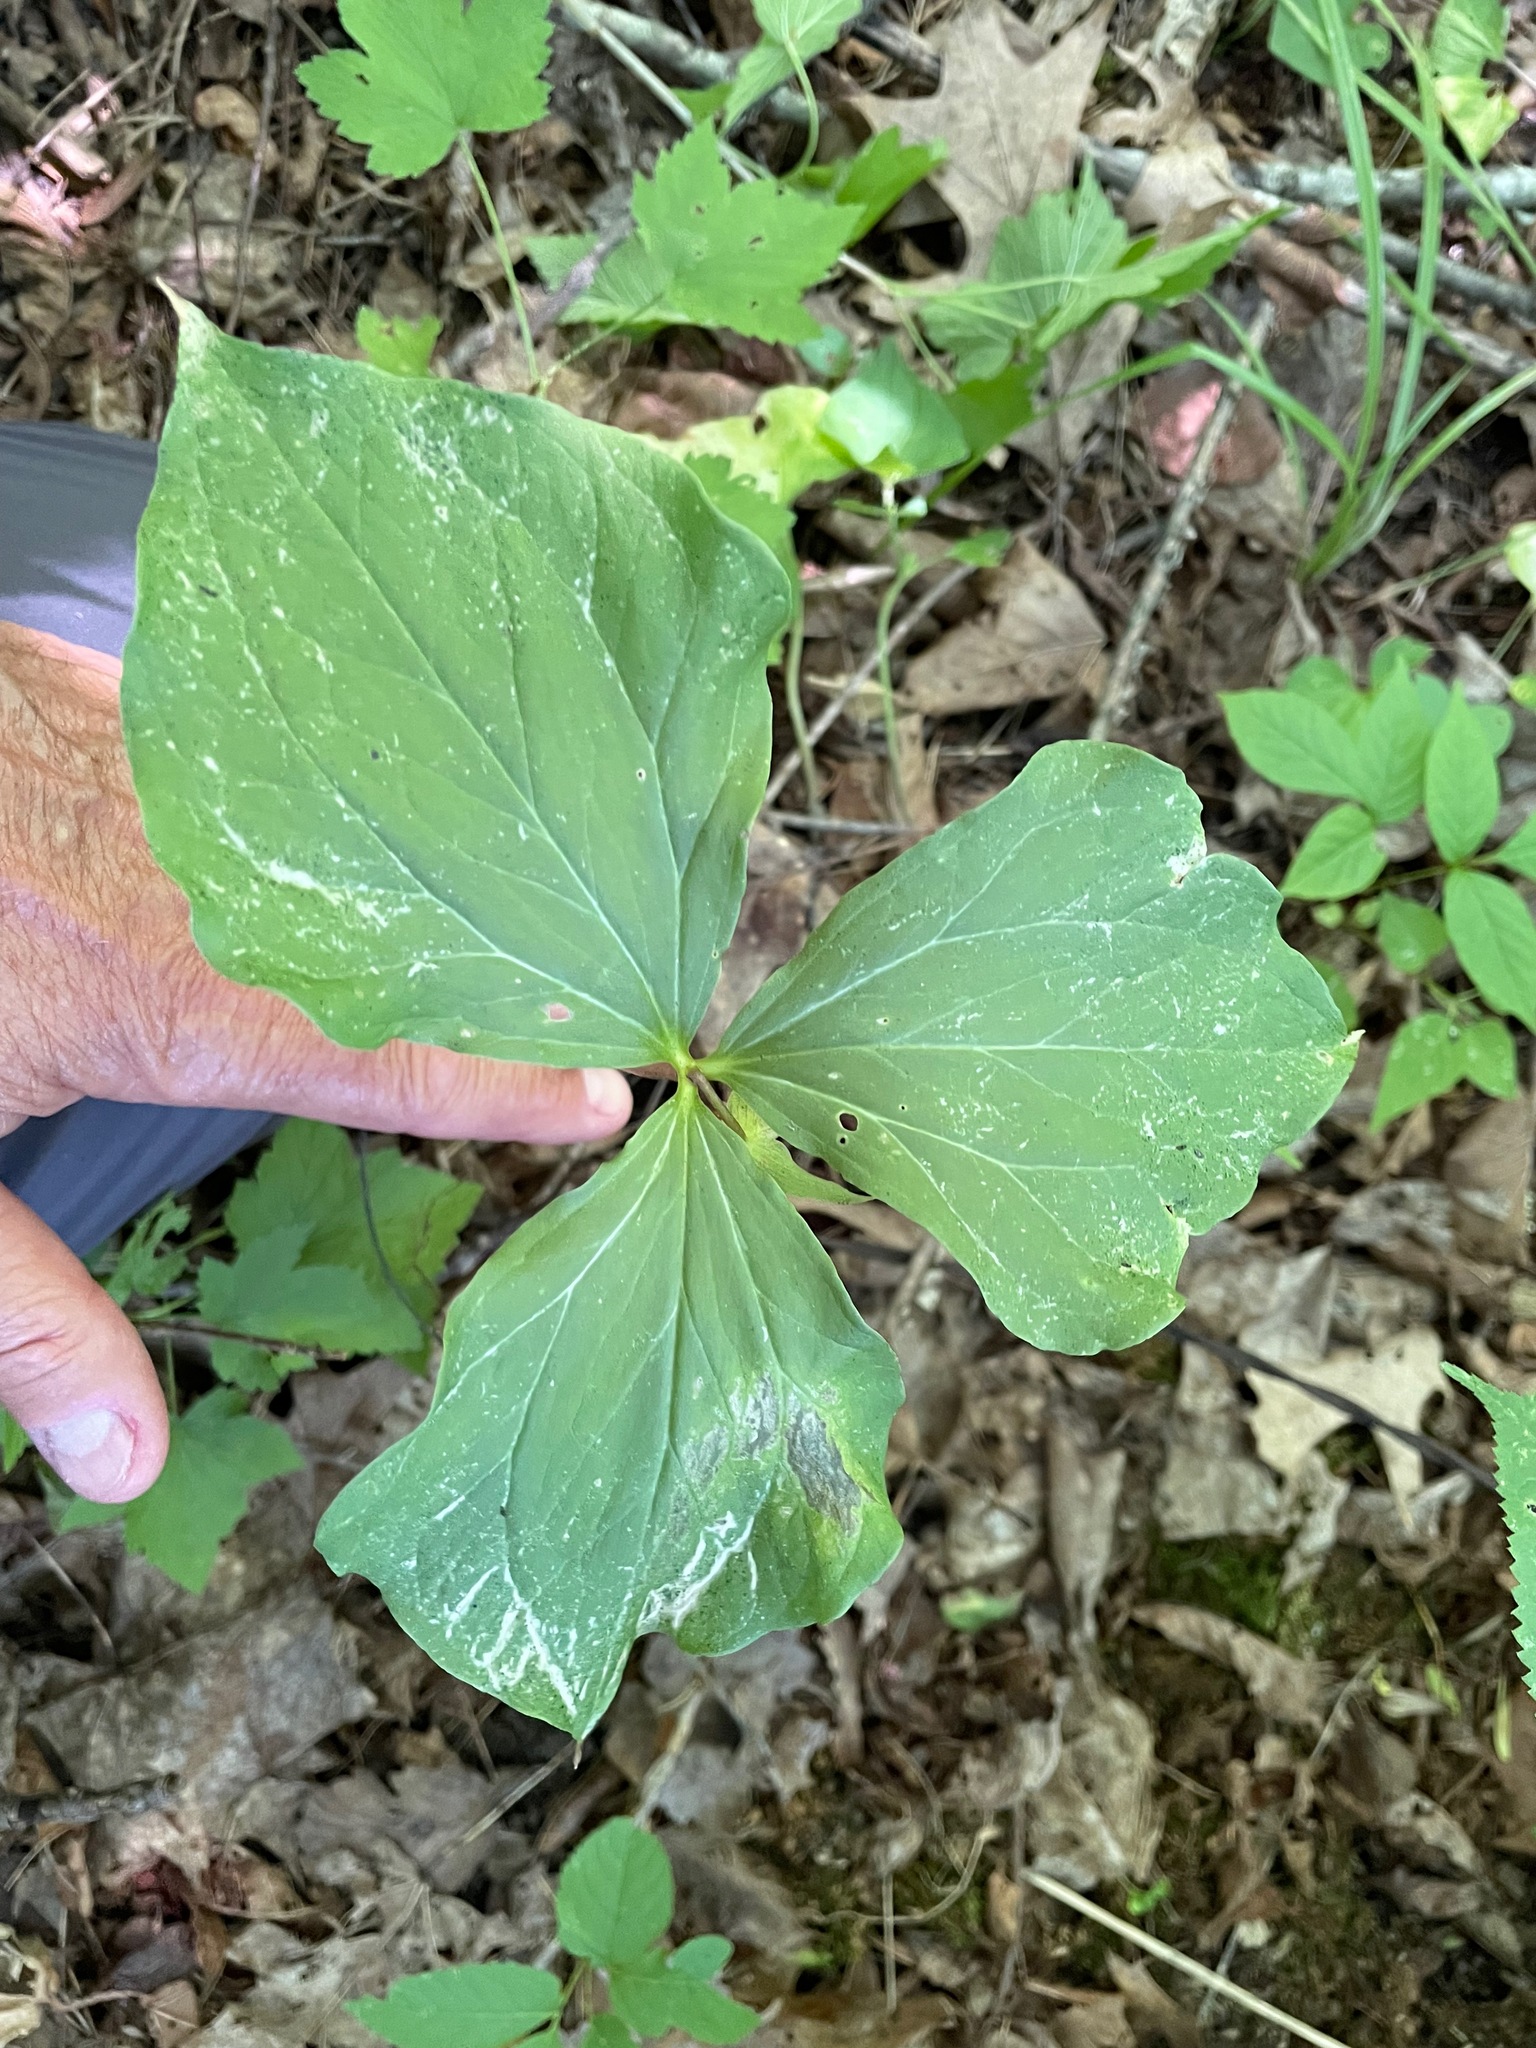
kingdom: Plantae
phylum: Tracheophyta
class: Liliopsida
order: Liliales
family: Melanthiaceae
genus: Trillium
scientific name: Trillium cernuum
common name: Nodding trillium
